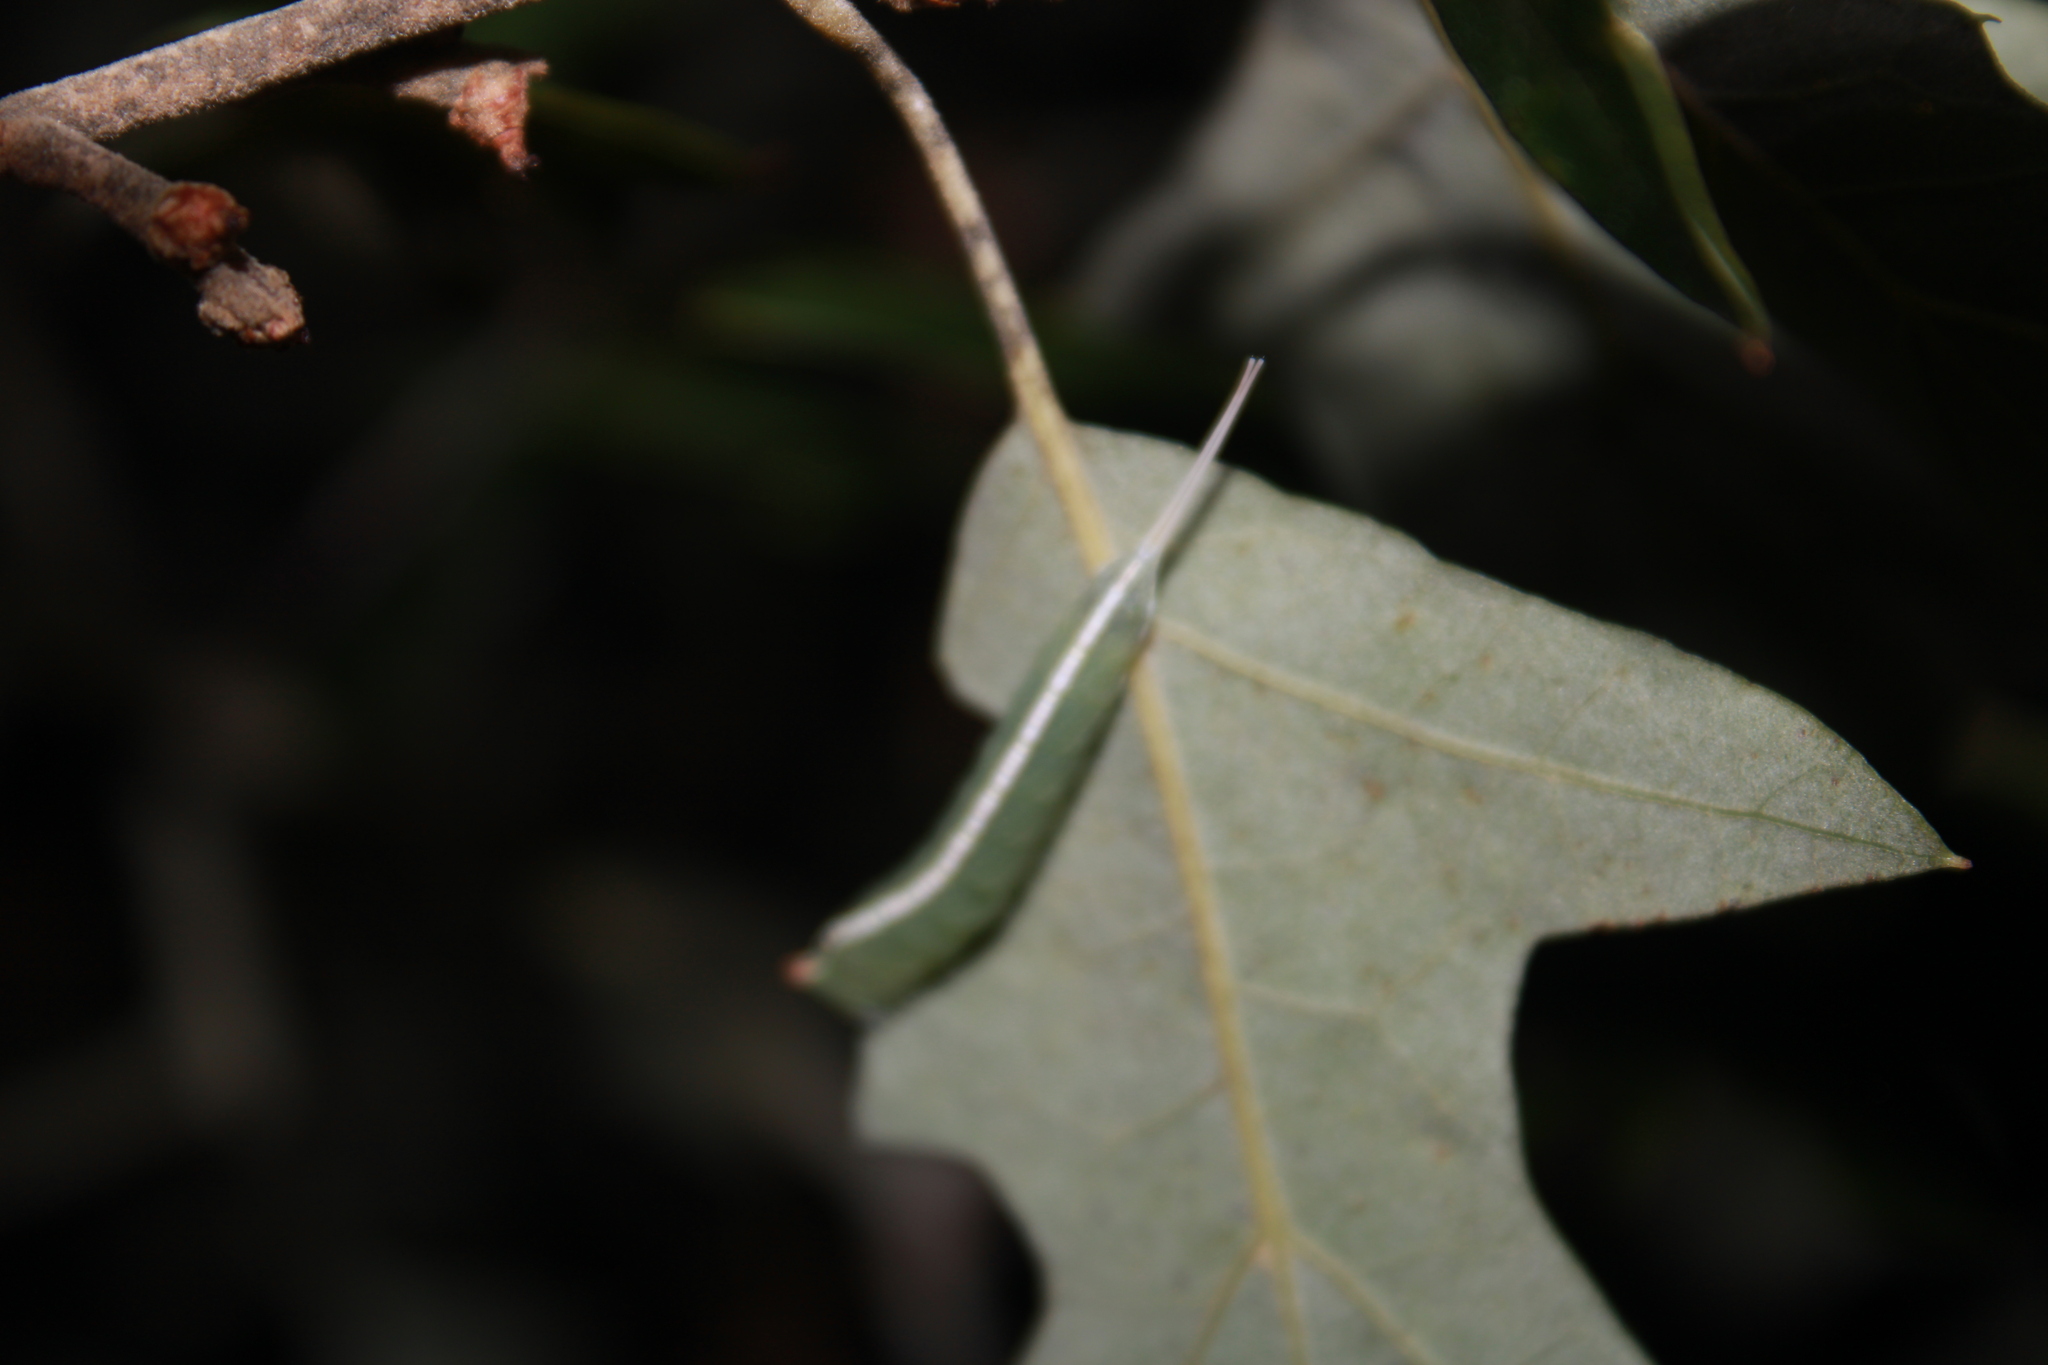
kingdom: Animalia
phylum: Arthropoda
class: Insecta
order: Lepidoptera
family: Notodontidae
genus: Macrurocampa
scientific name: Macrurocampa marthesia
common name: Mottled prominent
